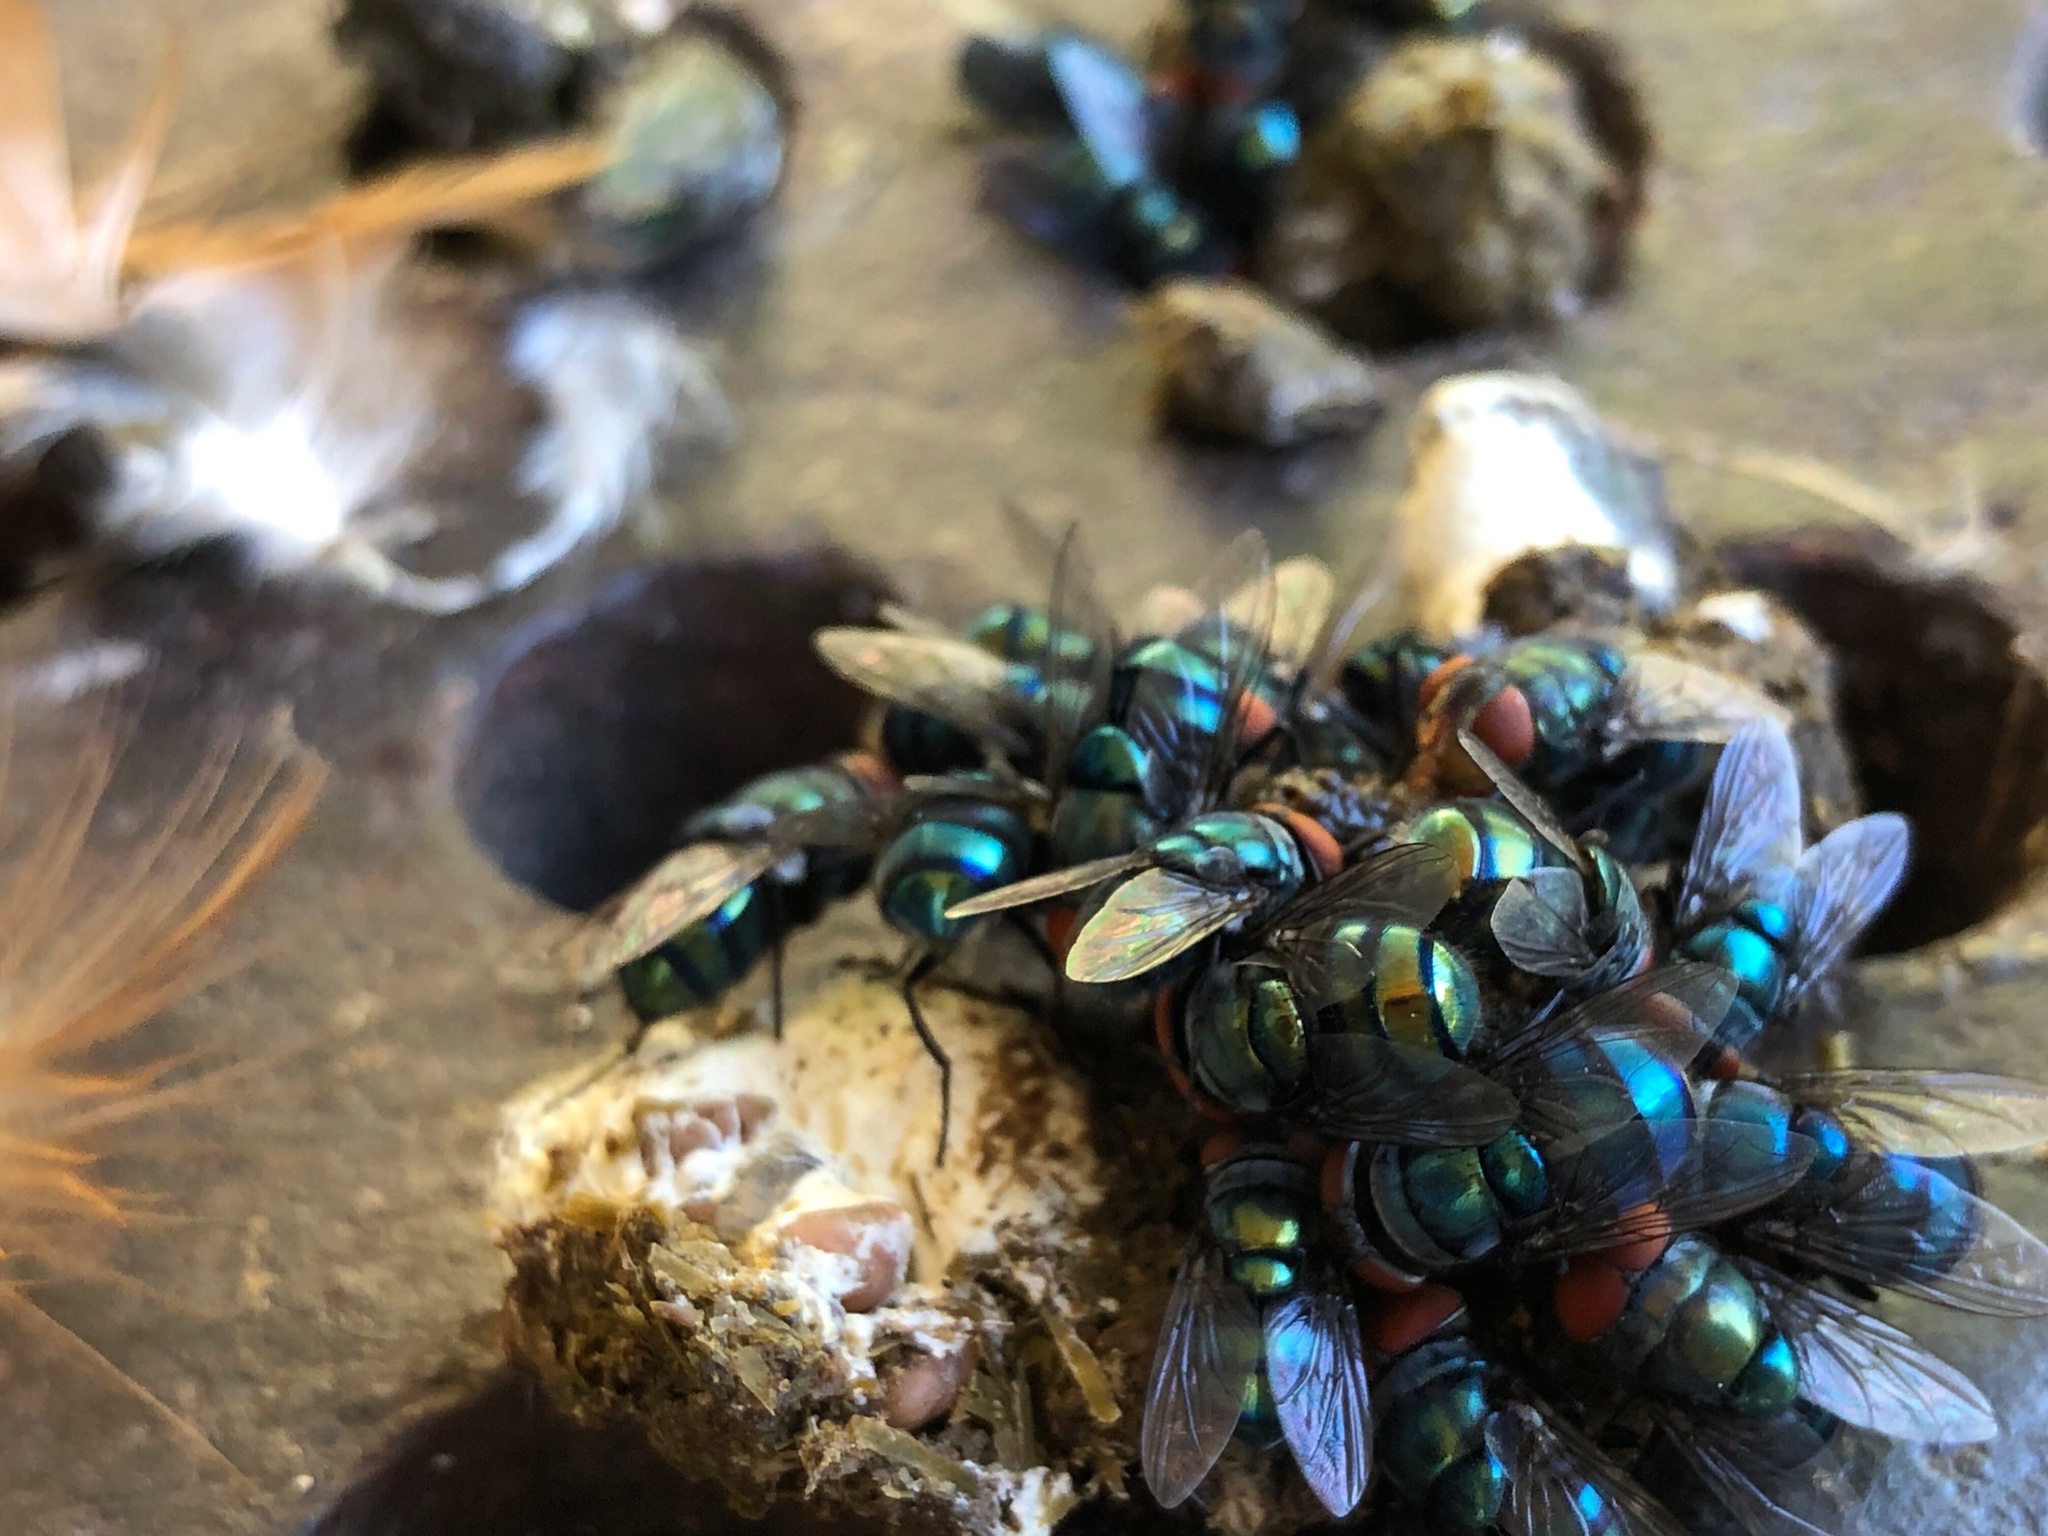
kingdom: Animalia
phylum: Arthropoda
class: Insecta
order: Diptera
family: Calliphoridae
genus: Chrysomya
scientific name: Chrysomya megacephala
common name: Blow fly
